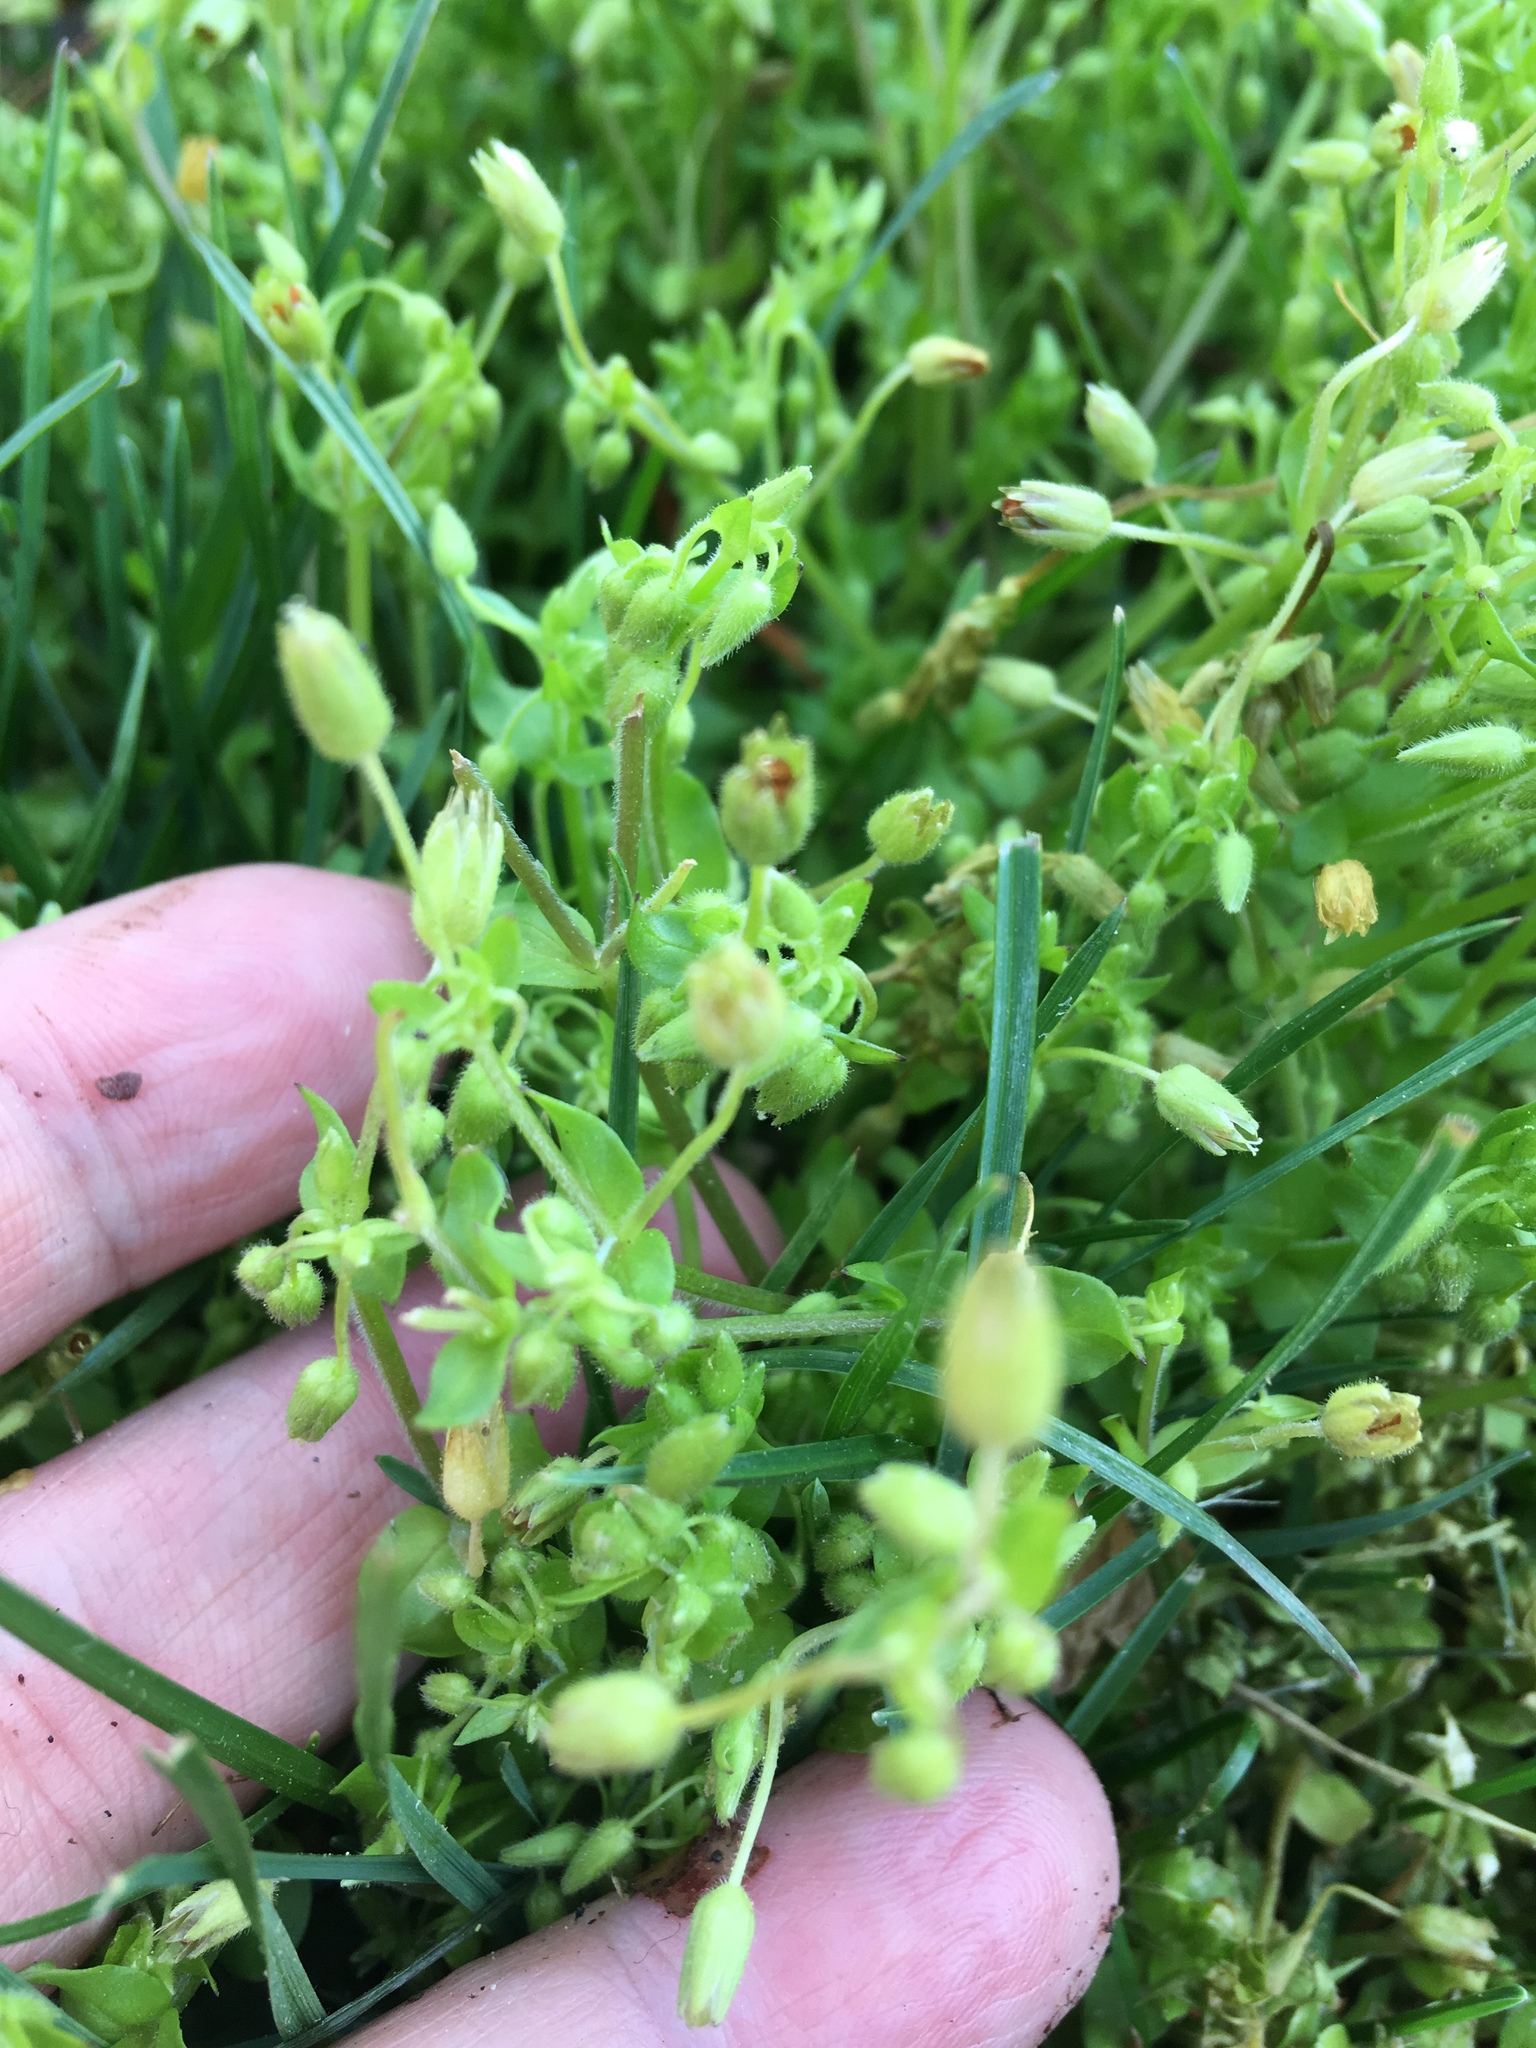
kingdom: Plantae
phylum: Tracheophyta
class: Magnoliopsida
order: Caryophyllales
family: Caryophyllaceae
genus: Stellaria
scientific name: Stellaria apetala
